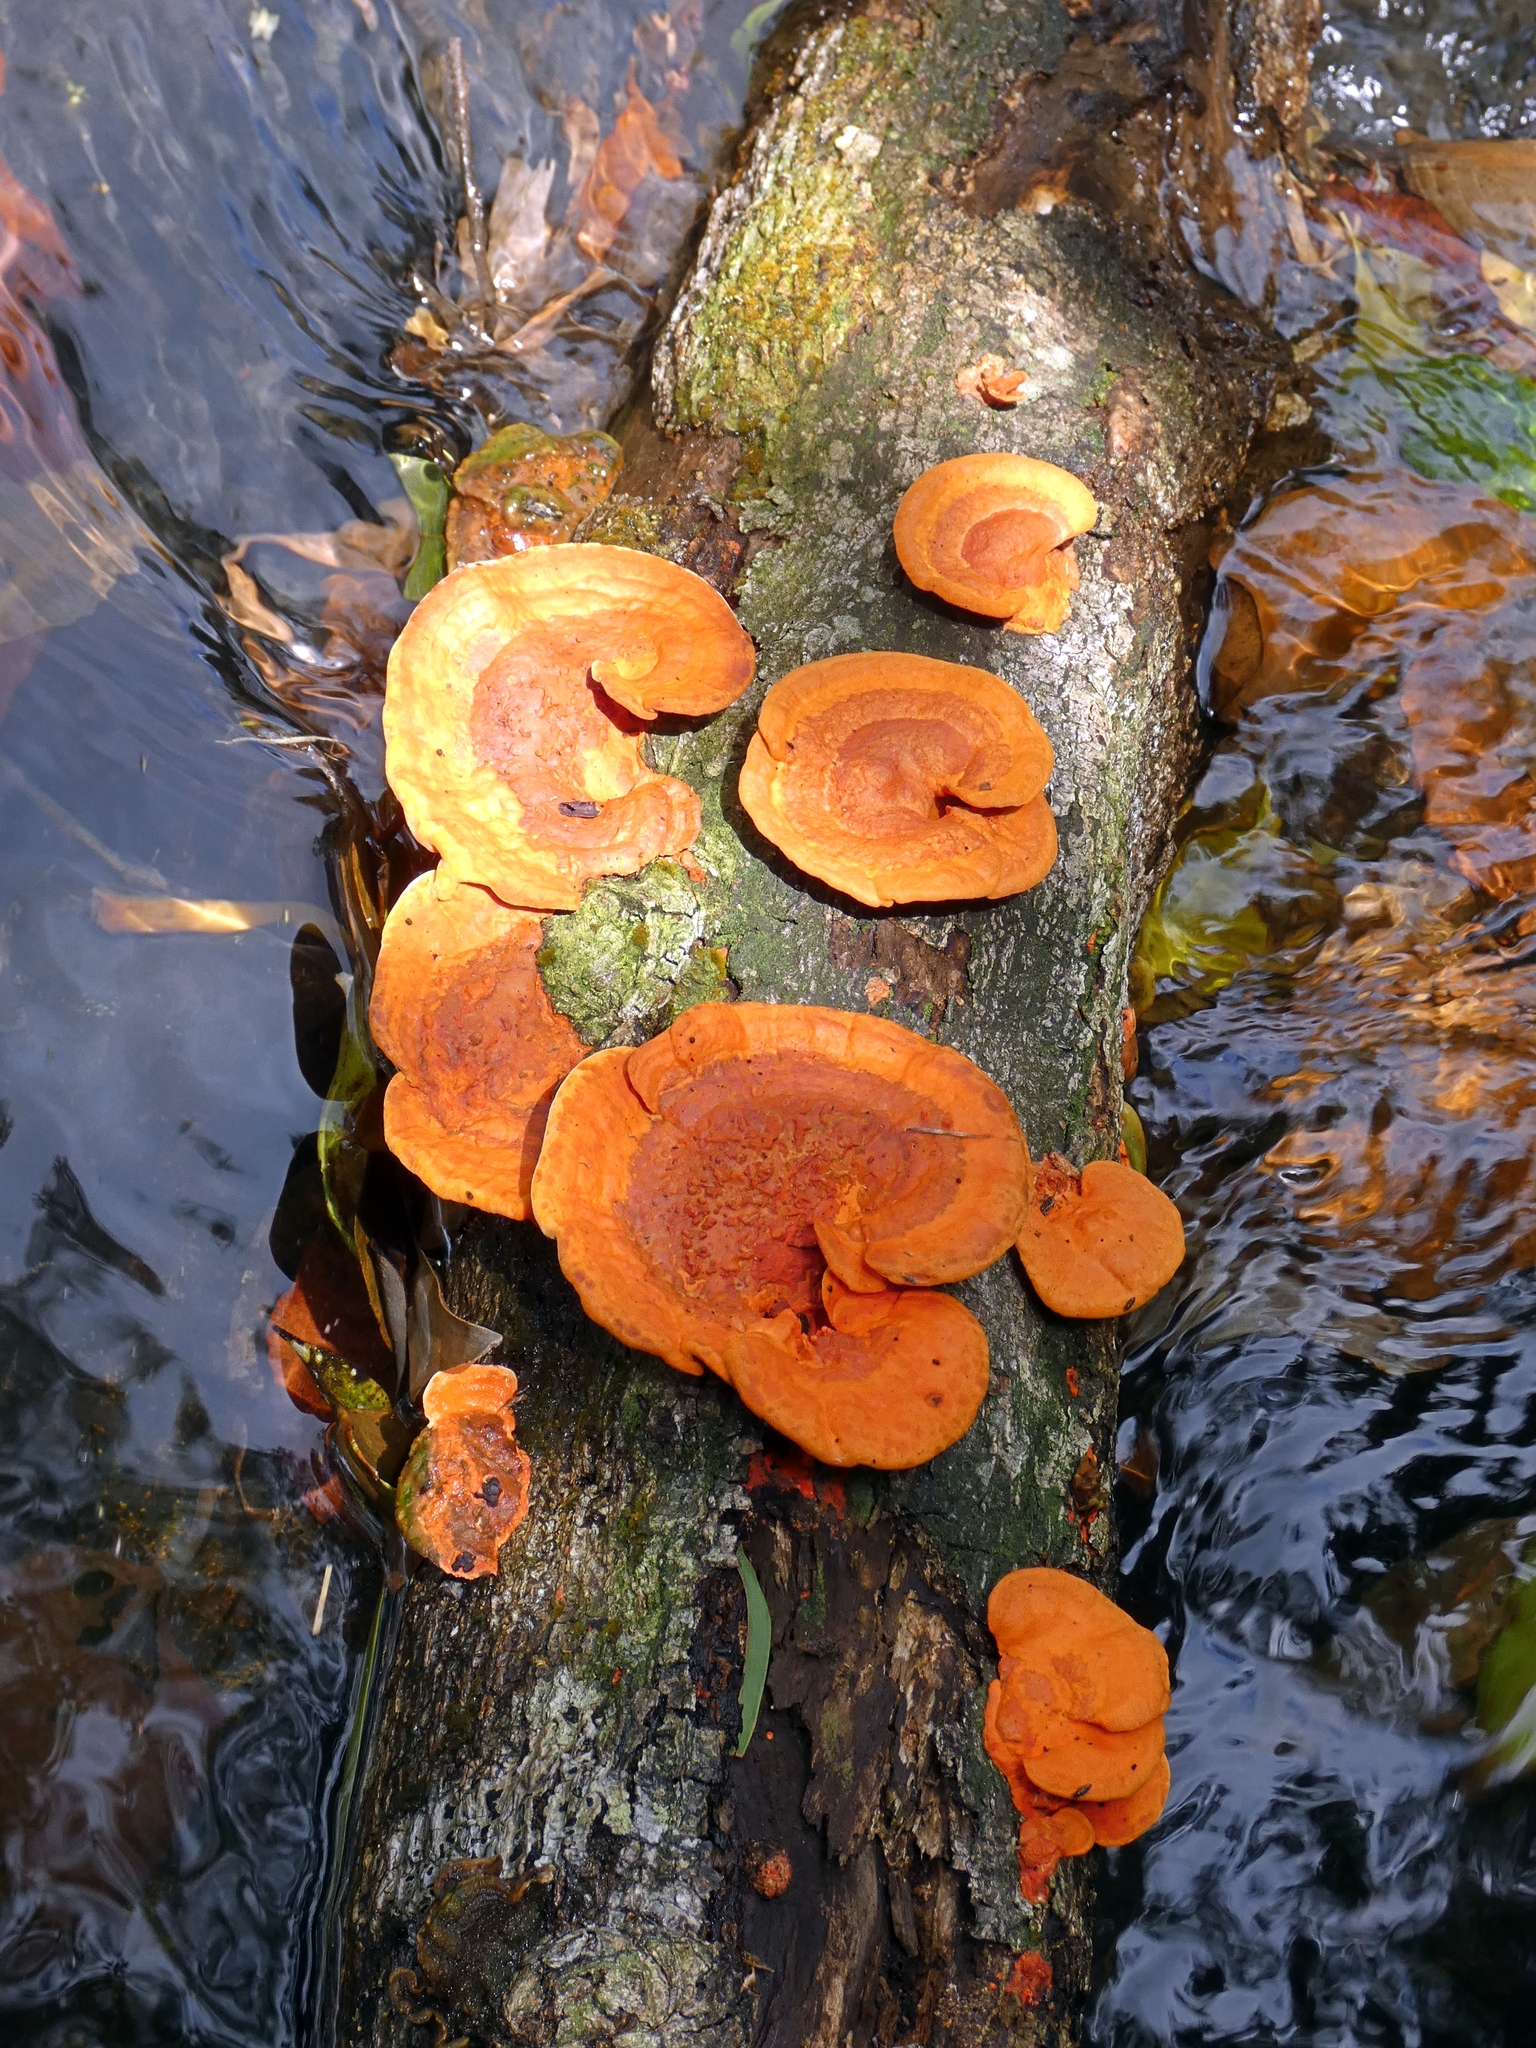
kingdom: Fungi
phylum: Basidiomycota
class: Agaricomycetes
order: Polyporales
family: Polyporaceae
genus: Trametes
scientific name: Trametes coccinea
